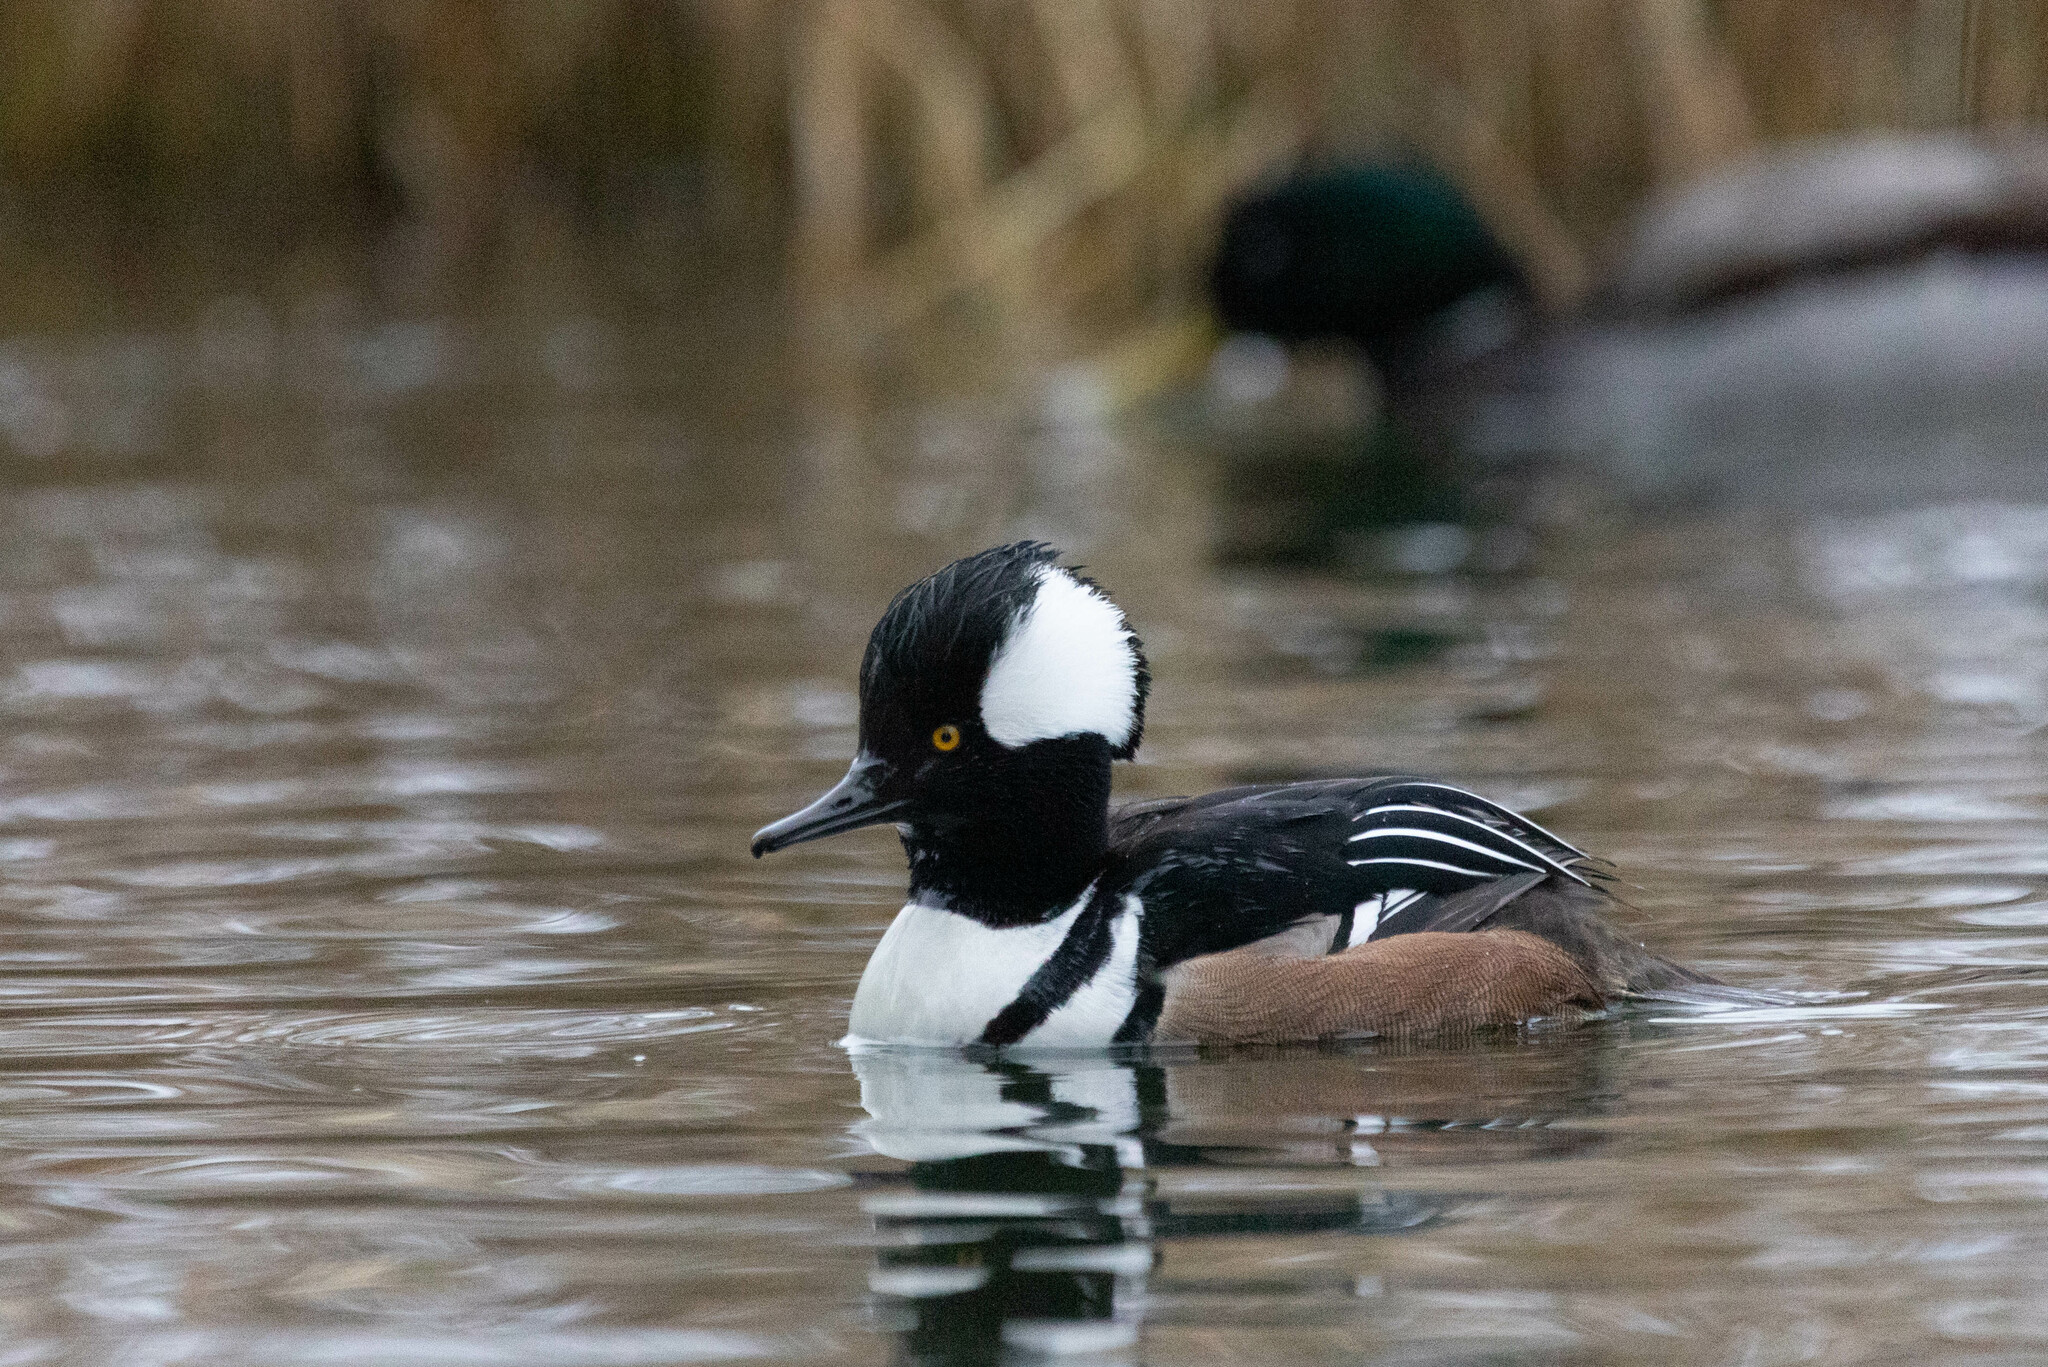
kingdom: Animalia
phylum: Chordata
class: Aves
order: Anseriformes
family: Anatidae
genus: Lophodytes
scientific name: Lophodytes cucullatus
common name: Hooded merganser
